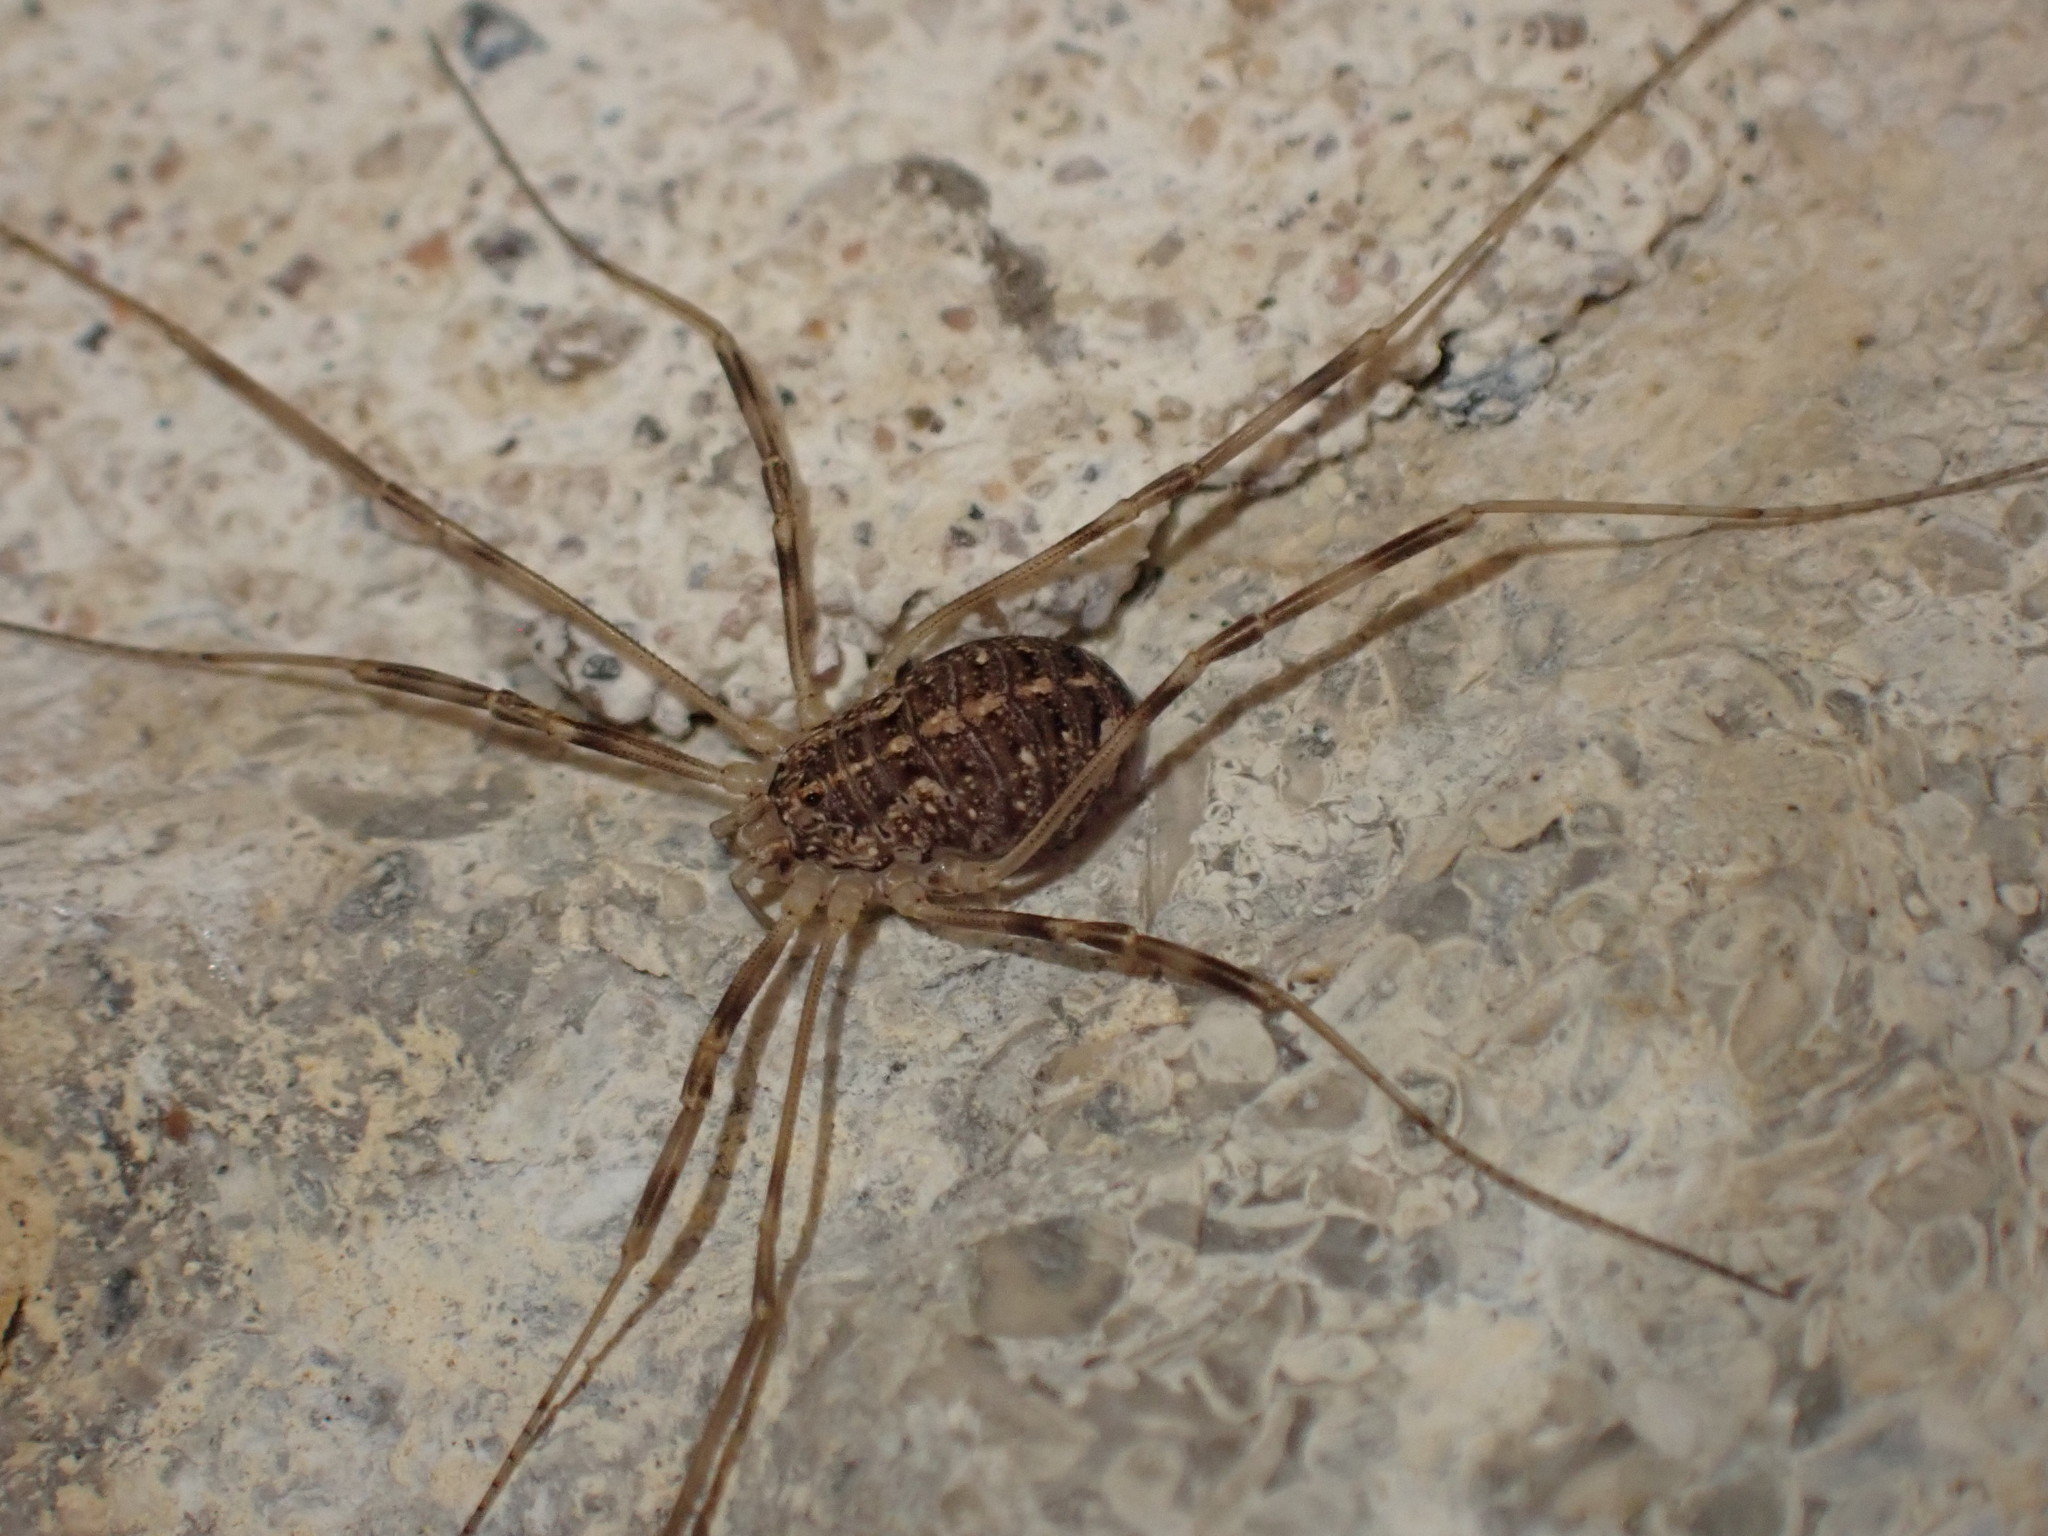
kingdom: Animalia
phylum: Arthropoda
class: Arachnida
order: Opiliones
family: Phalangiidae
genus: Opilio
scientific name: Opilio saxatilis
